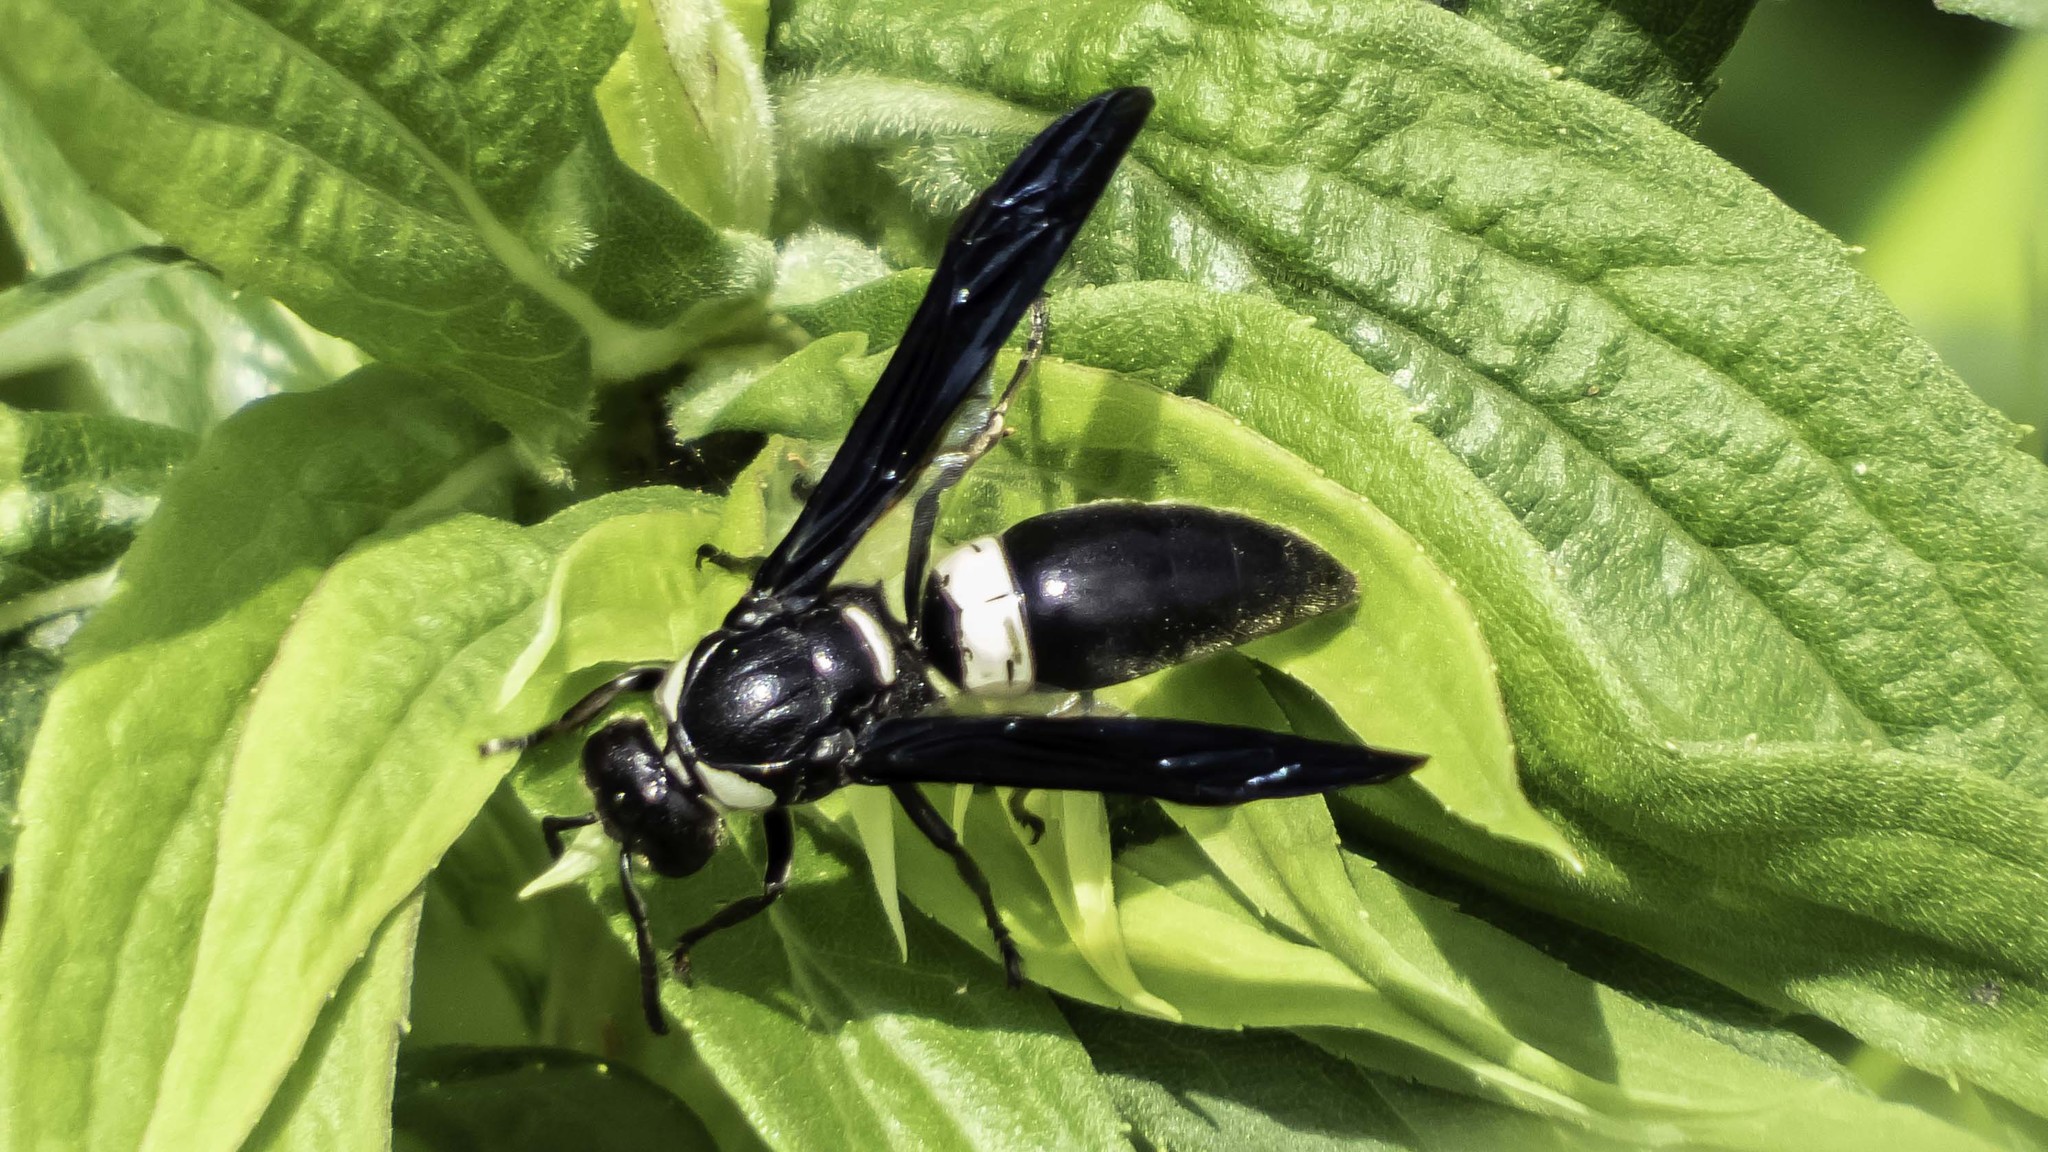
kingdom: Animalia
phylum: Arthropoda
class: Insecta
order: Hymenoptera
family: Eumenidae
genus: Monobia
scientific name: Monobia quadridens
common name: Four-toothed mason wasp
